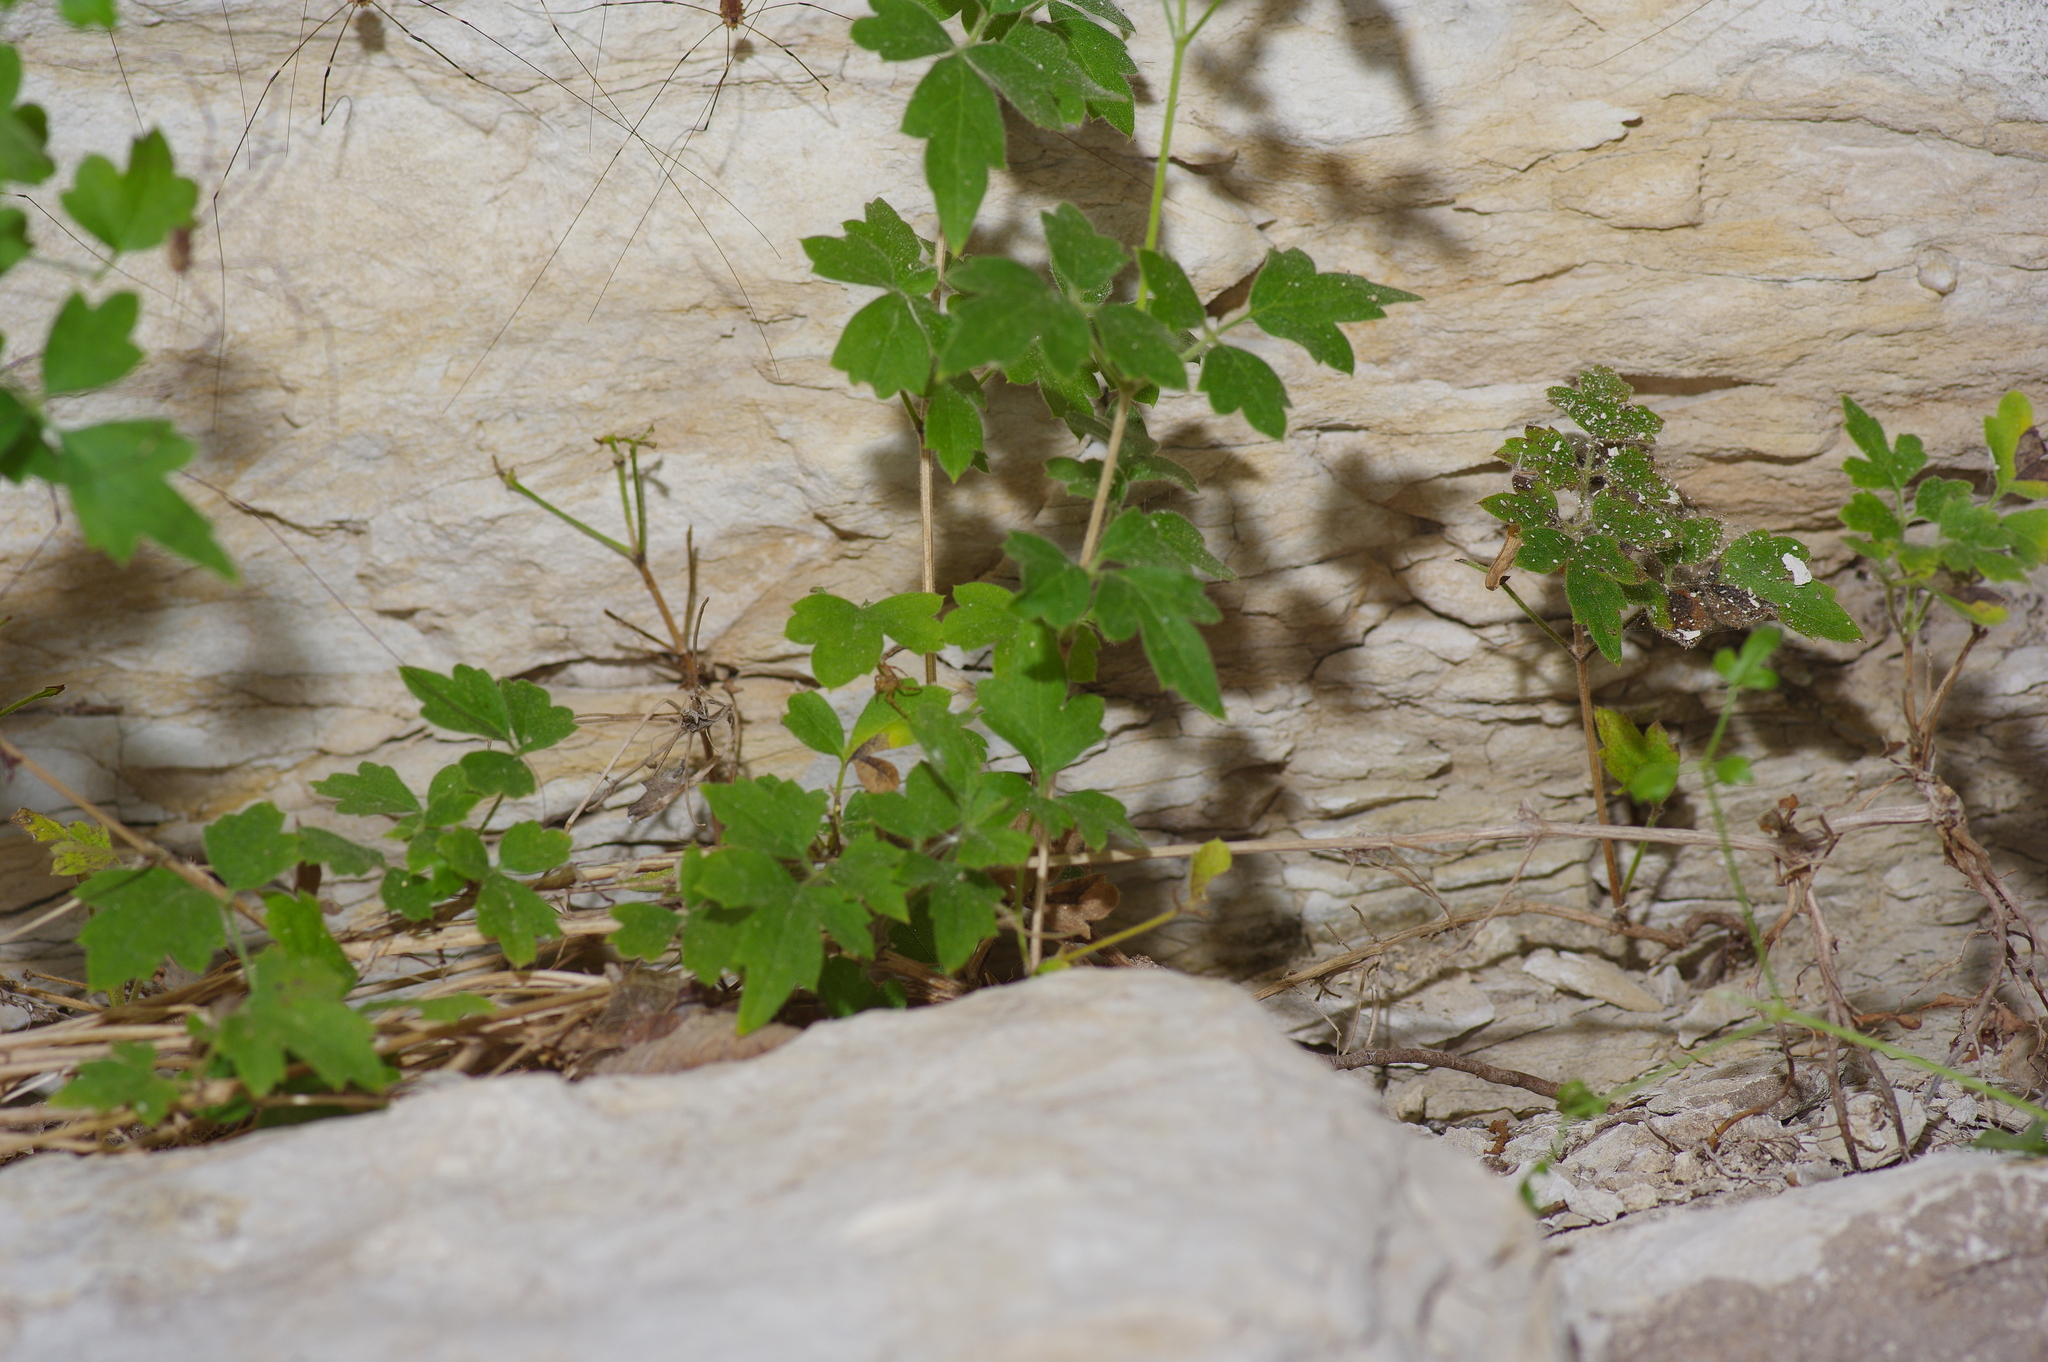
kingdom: Plantae
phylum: Tracheophyta
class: Magnoliopsida
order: Ranunculales
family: Ranunculaceae
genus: Clematis
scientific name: Clematis drummondii
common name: Texas virgin's bower
